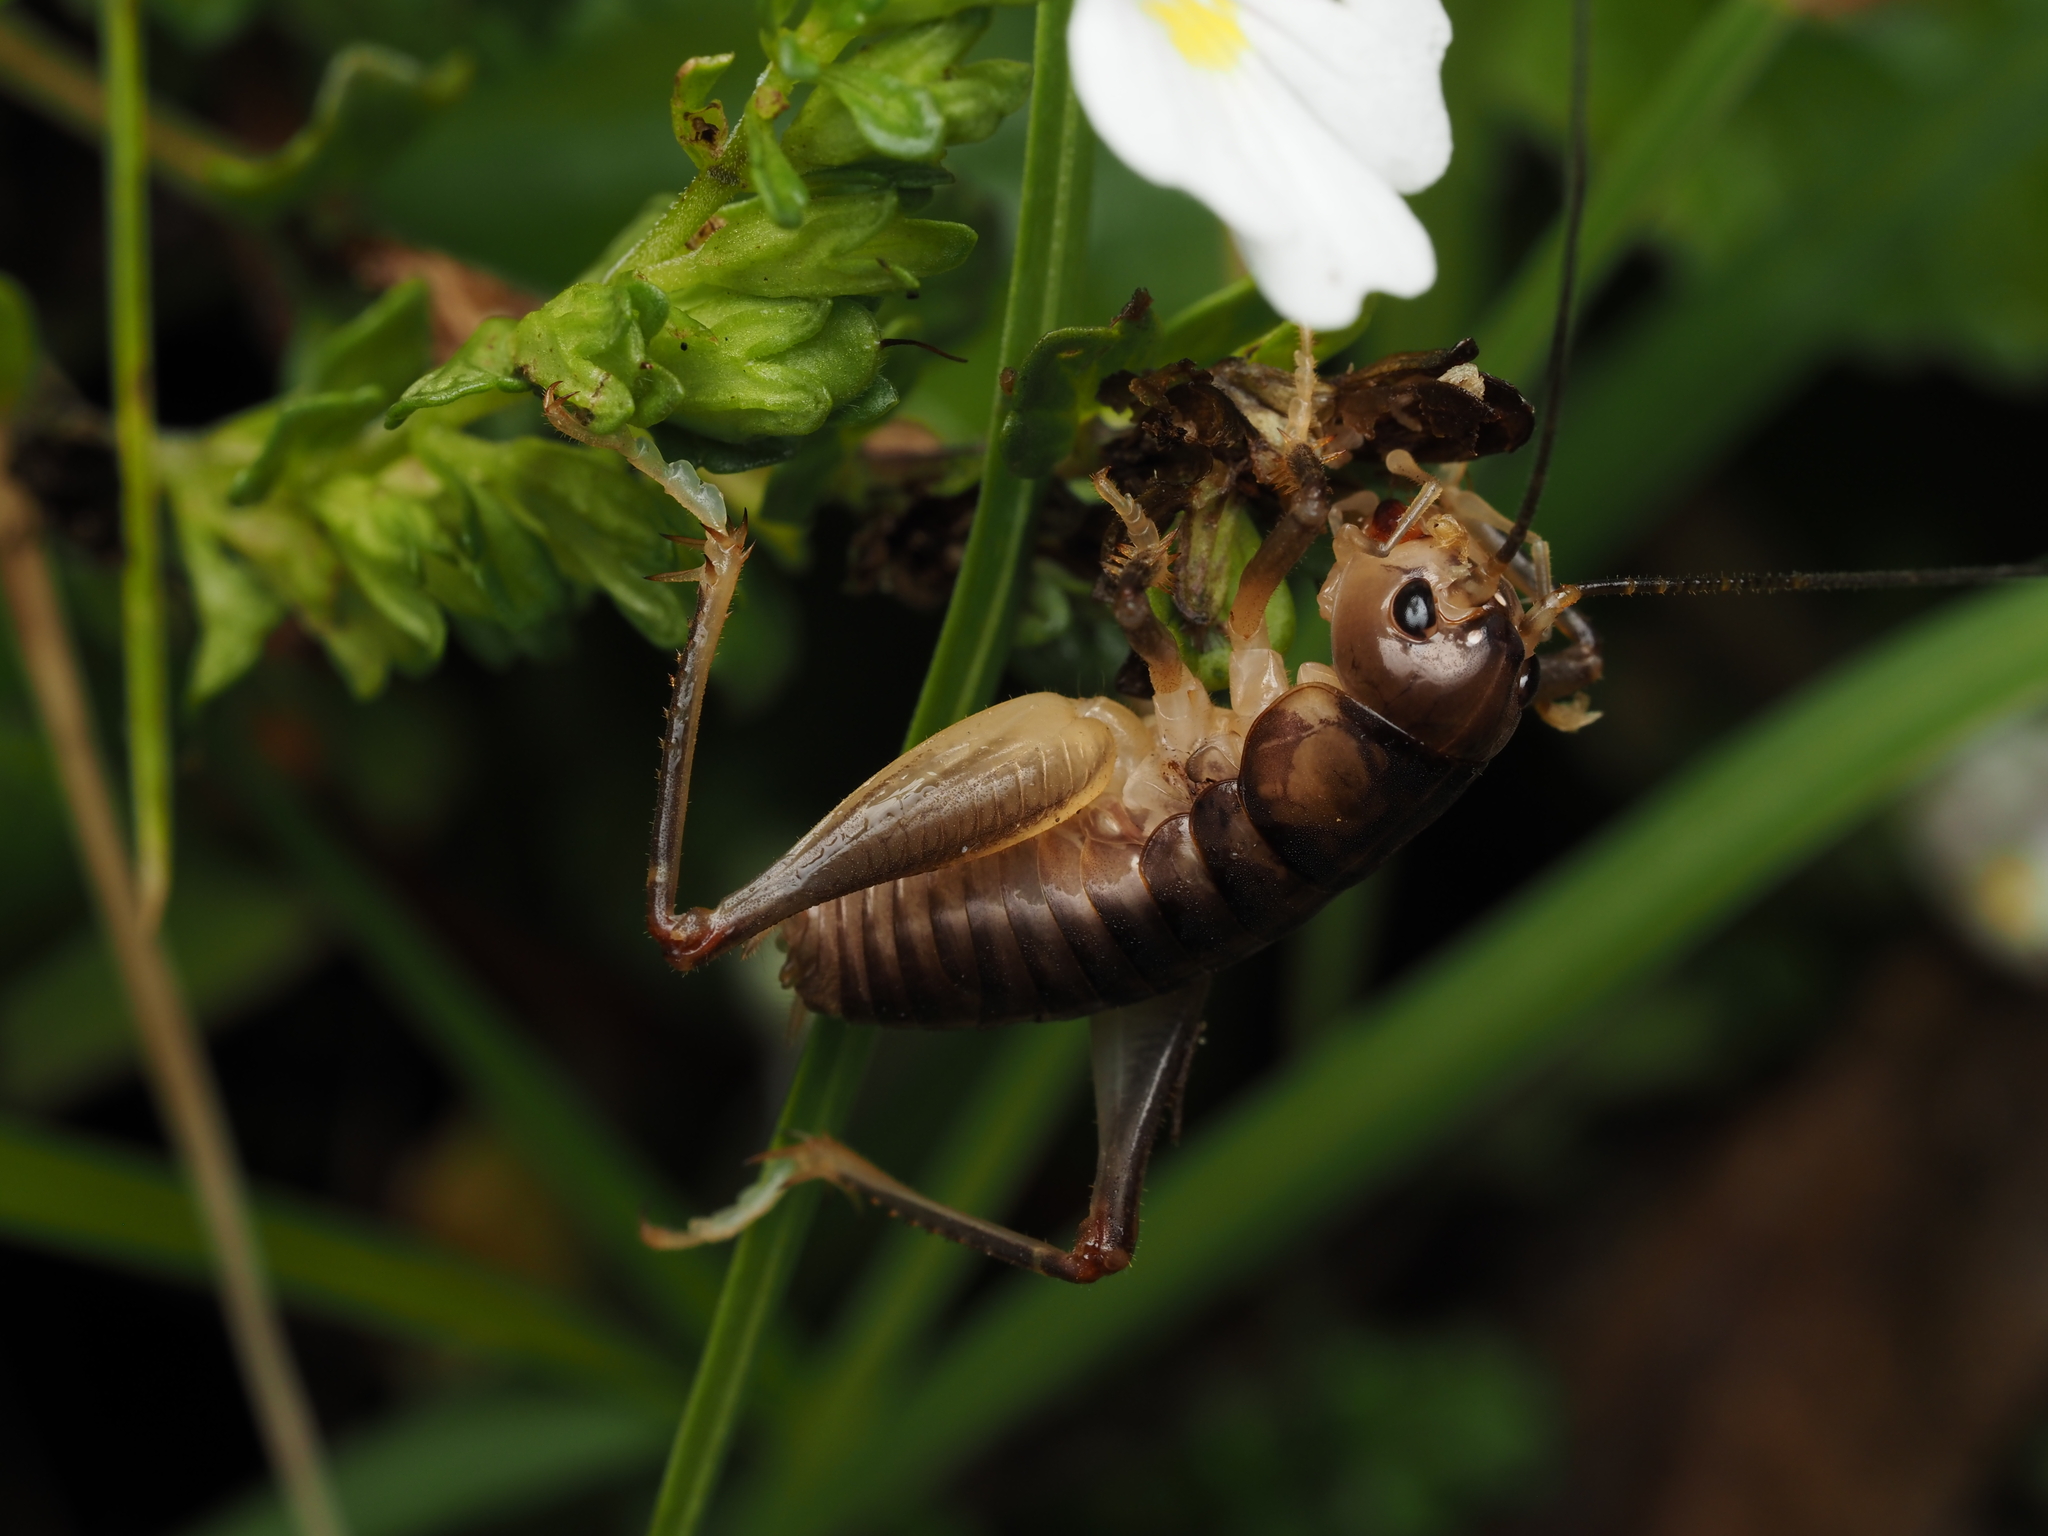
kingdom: Animalia
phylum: Arthropoda
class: Insecta
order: Orthoptera
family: Anostostomatidae
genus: Hemiandrus
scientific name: Hemiandrus pallitarsis
